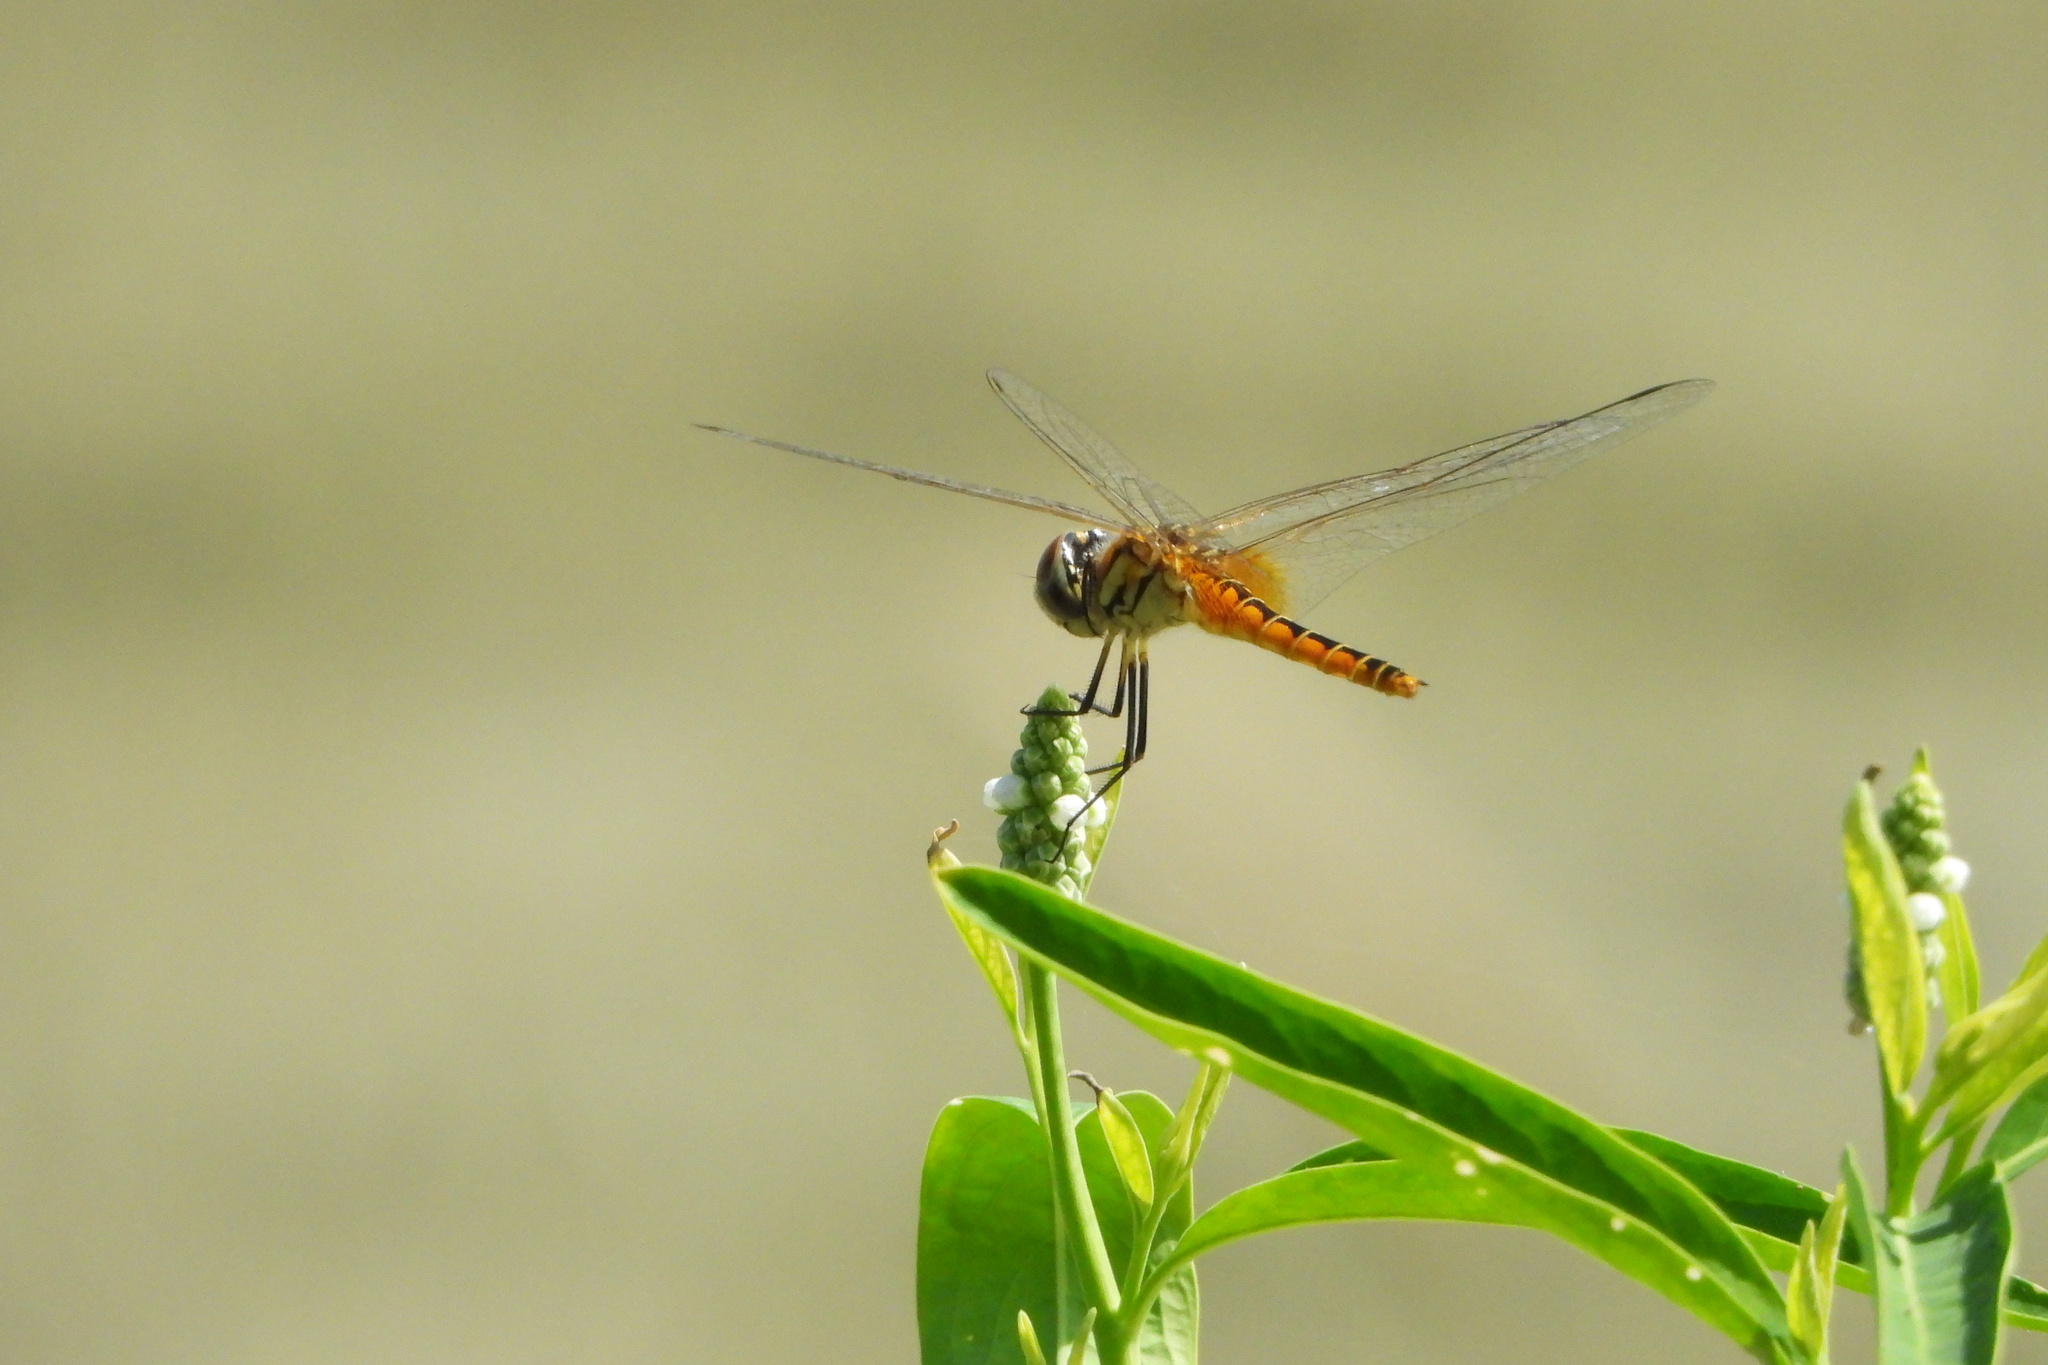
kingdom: Animalia
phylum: Arthropoda
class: Insecta
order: Odonata
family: Libellulidae
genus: Macrodiplax
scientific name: Macrodiplax cora
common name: Coastal glider
